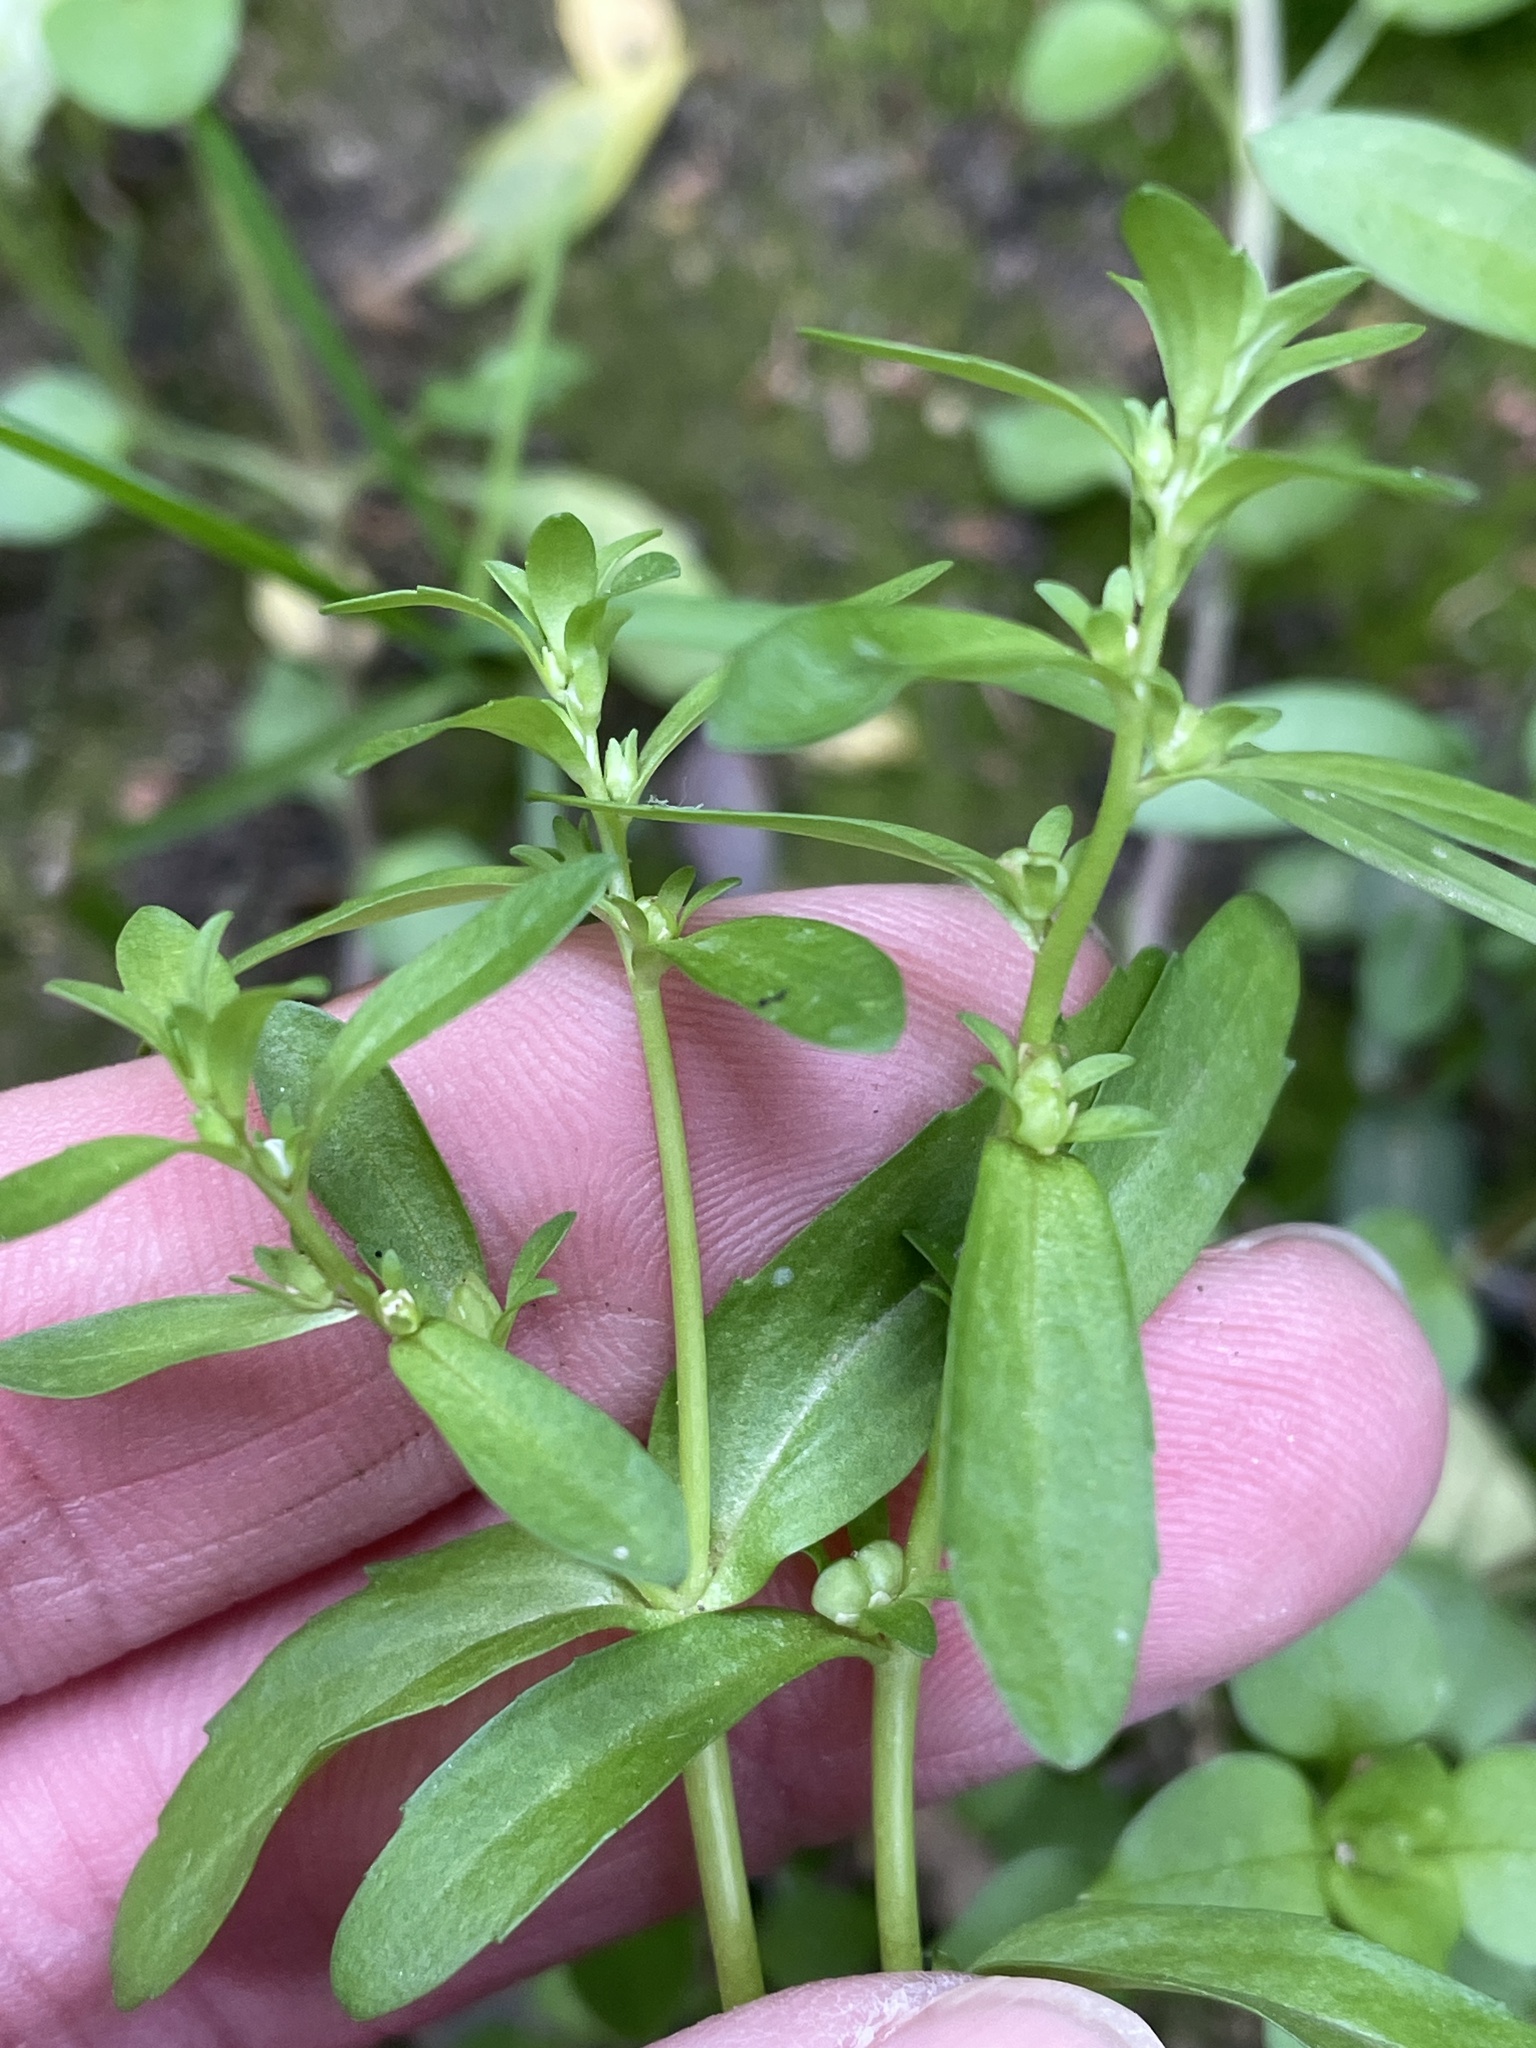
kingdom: Plantae
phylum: Tracheophyta
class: Magnoliopsida
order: Lamiales
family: Plantaginaceae
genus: Veronica
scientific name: Veronica peregrina
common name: Neckweed
